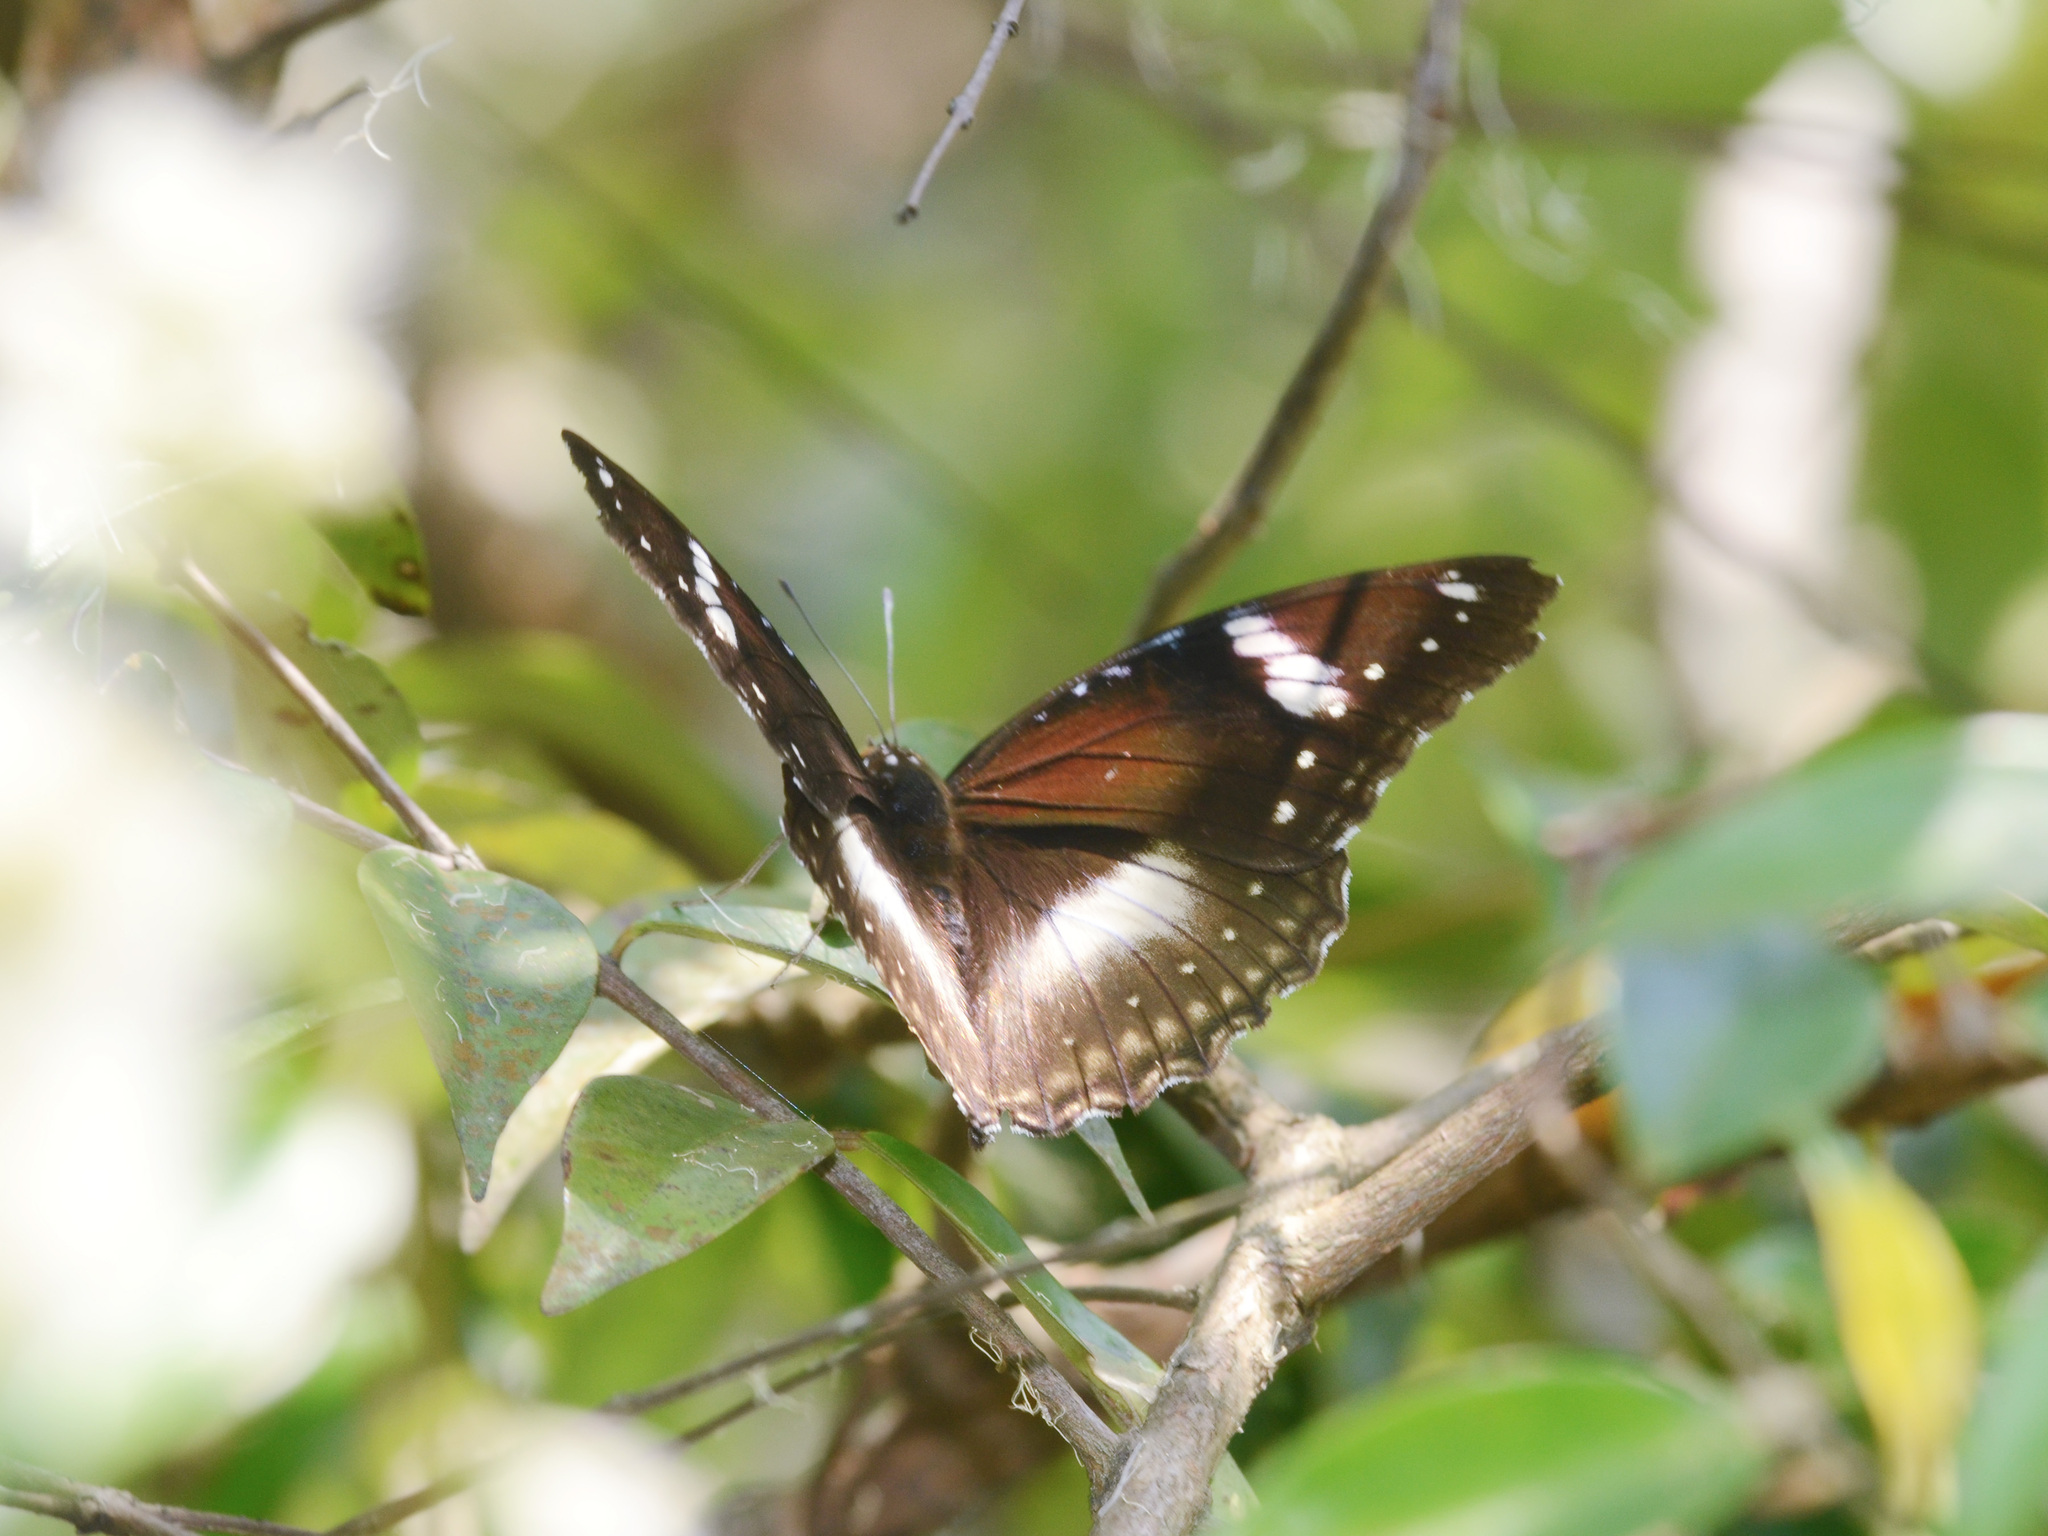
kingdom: Animalia
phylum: Arthropoda
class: Insecta
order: Lepidoptera
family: Nymphalidae
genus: Hypolimnas
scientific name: Hypolimnas bolina
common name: Great eggfly
